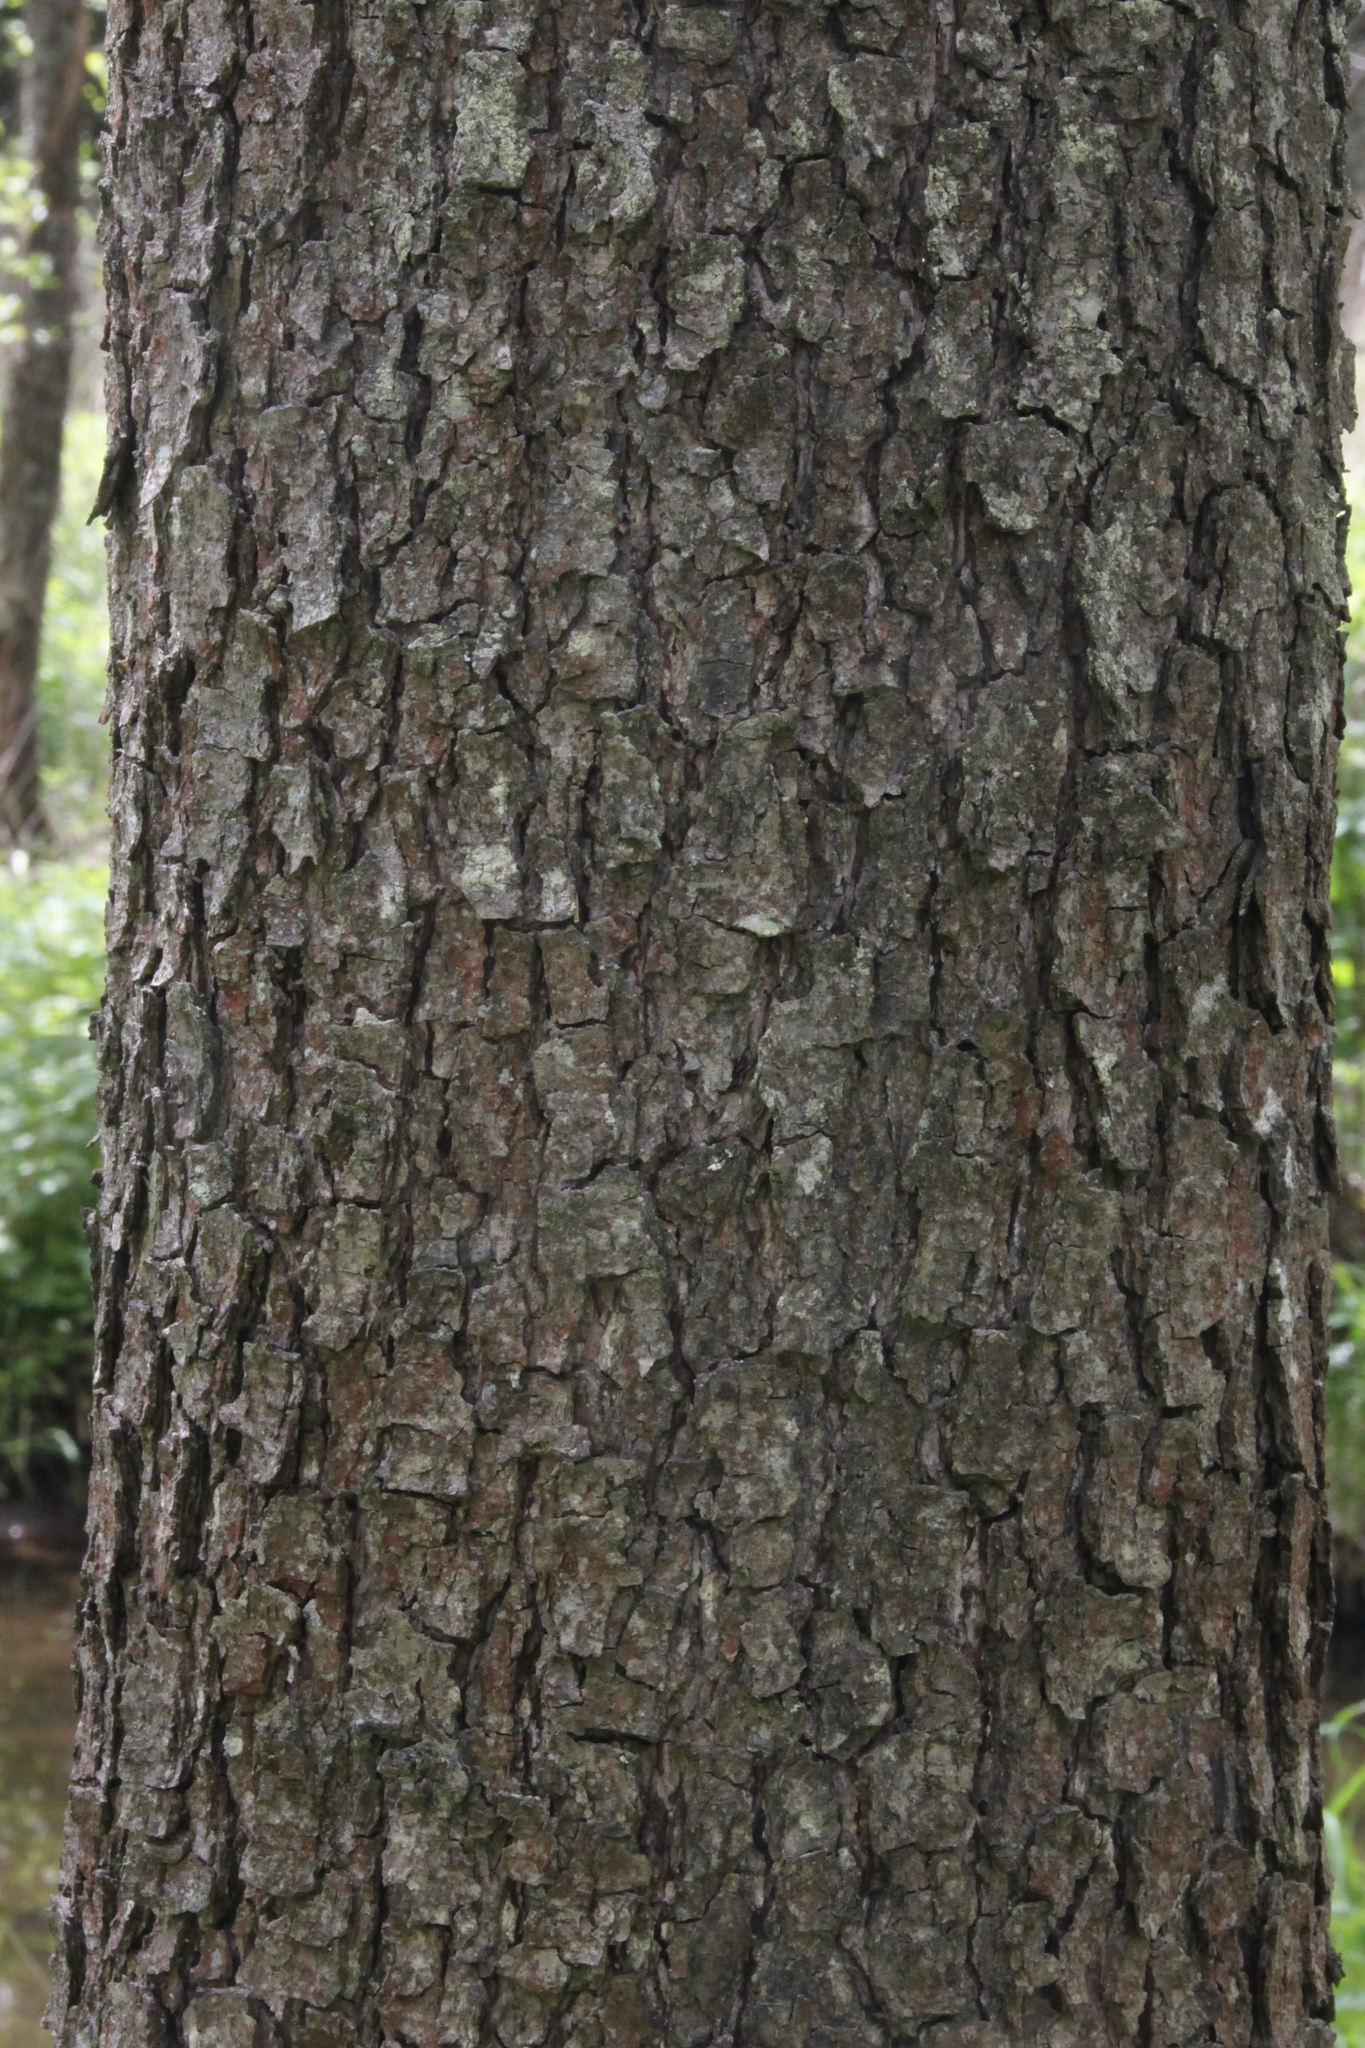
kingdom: Plantae
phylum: Tracheophyta
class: Magnoliopsida
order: Fagales
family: Betulaceae
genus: Alnus
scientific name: Alnus glutinosa
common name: Black alder
